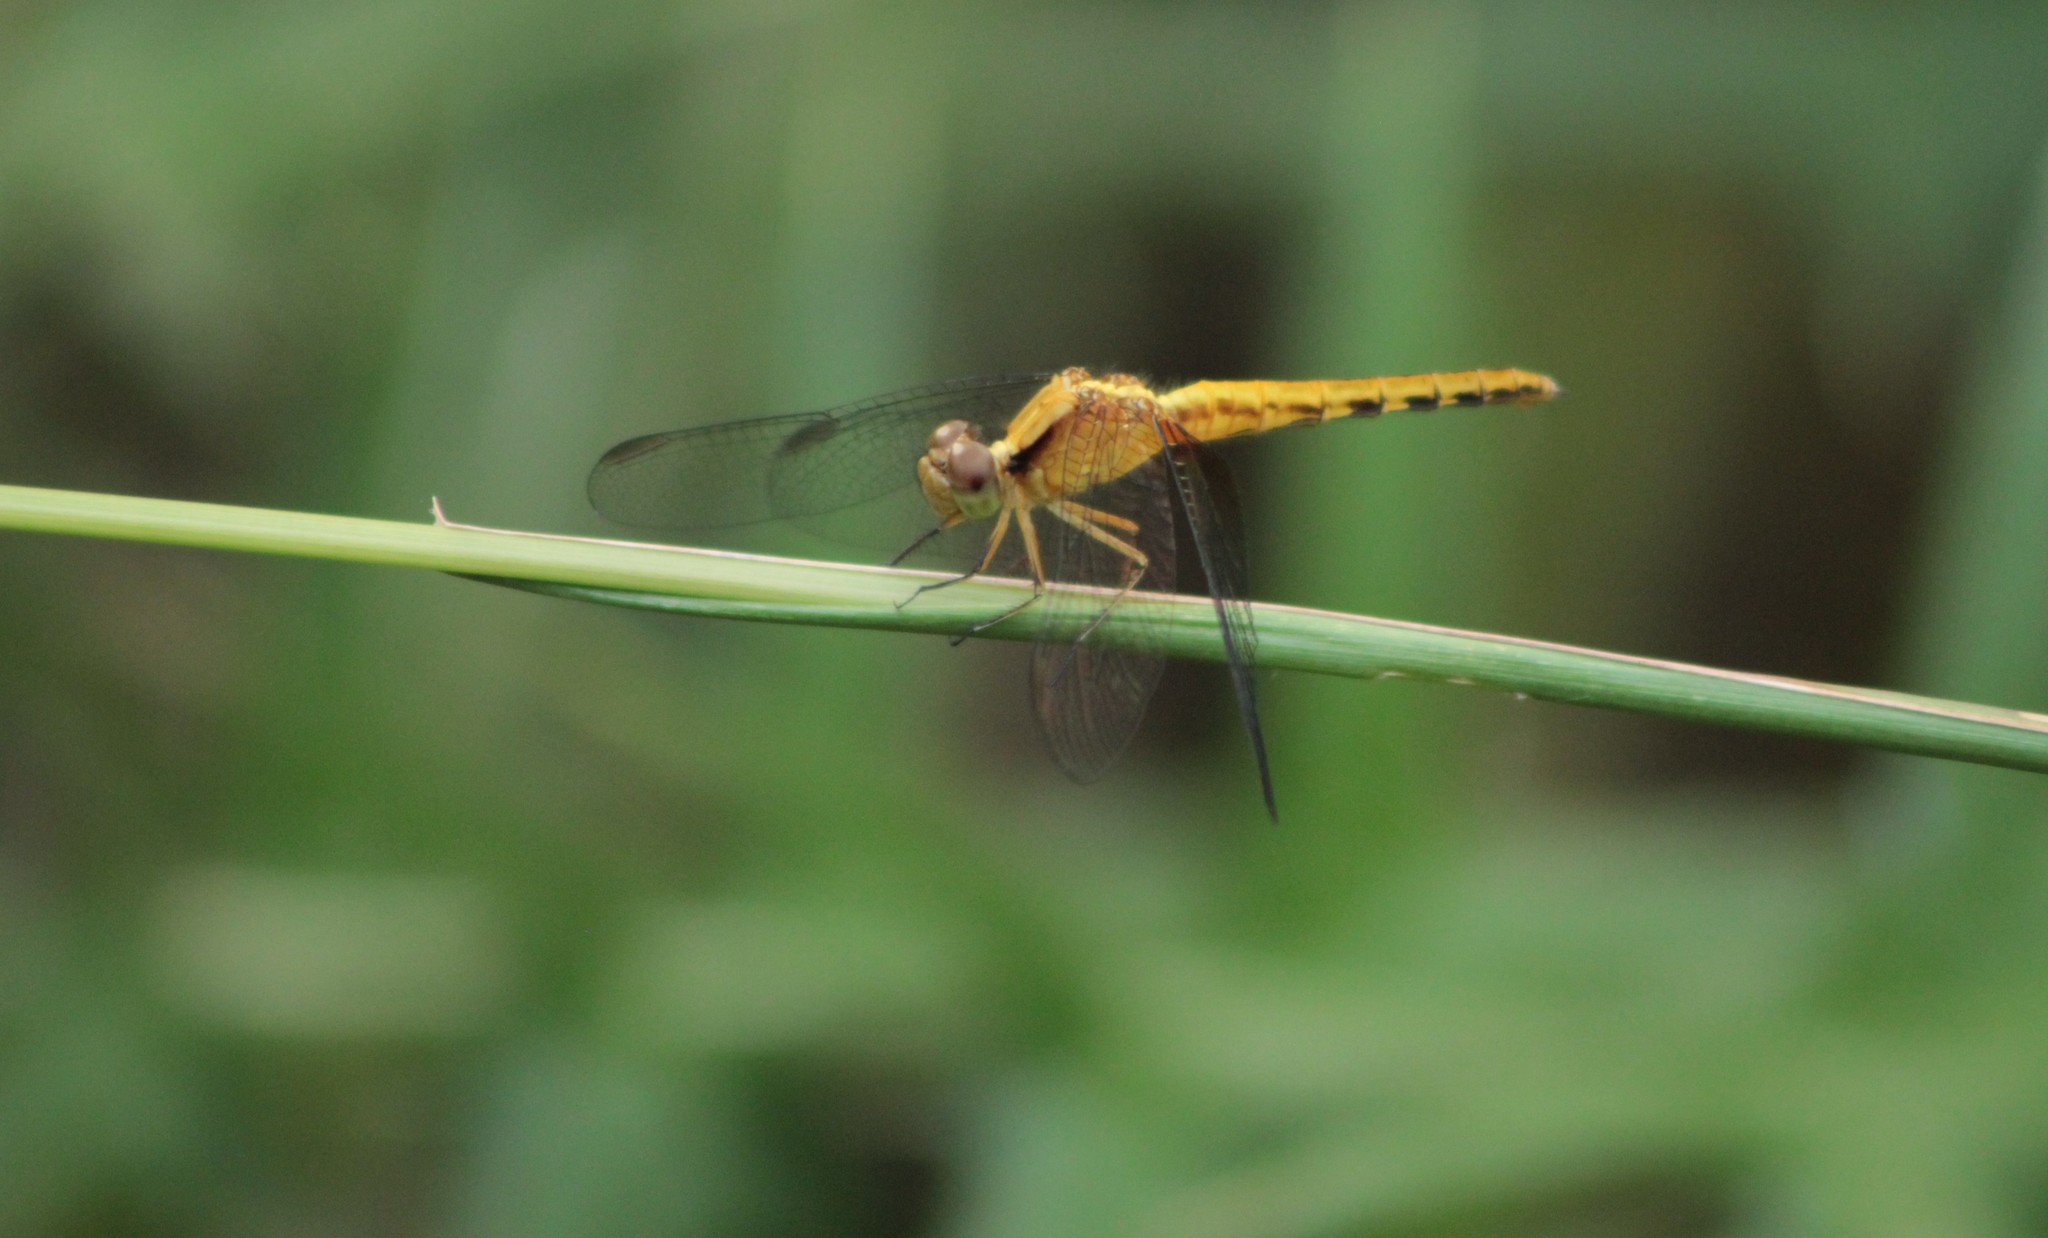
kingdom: Animalia
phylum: Arthropoda
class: Insecta
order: Odonata
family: Libellulidae
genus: Erythrodiplax
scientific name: Erythrodiplax melanorubra
